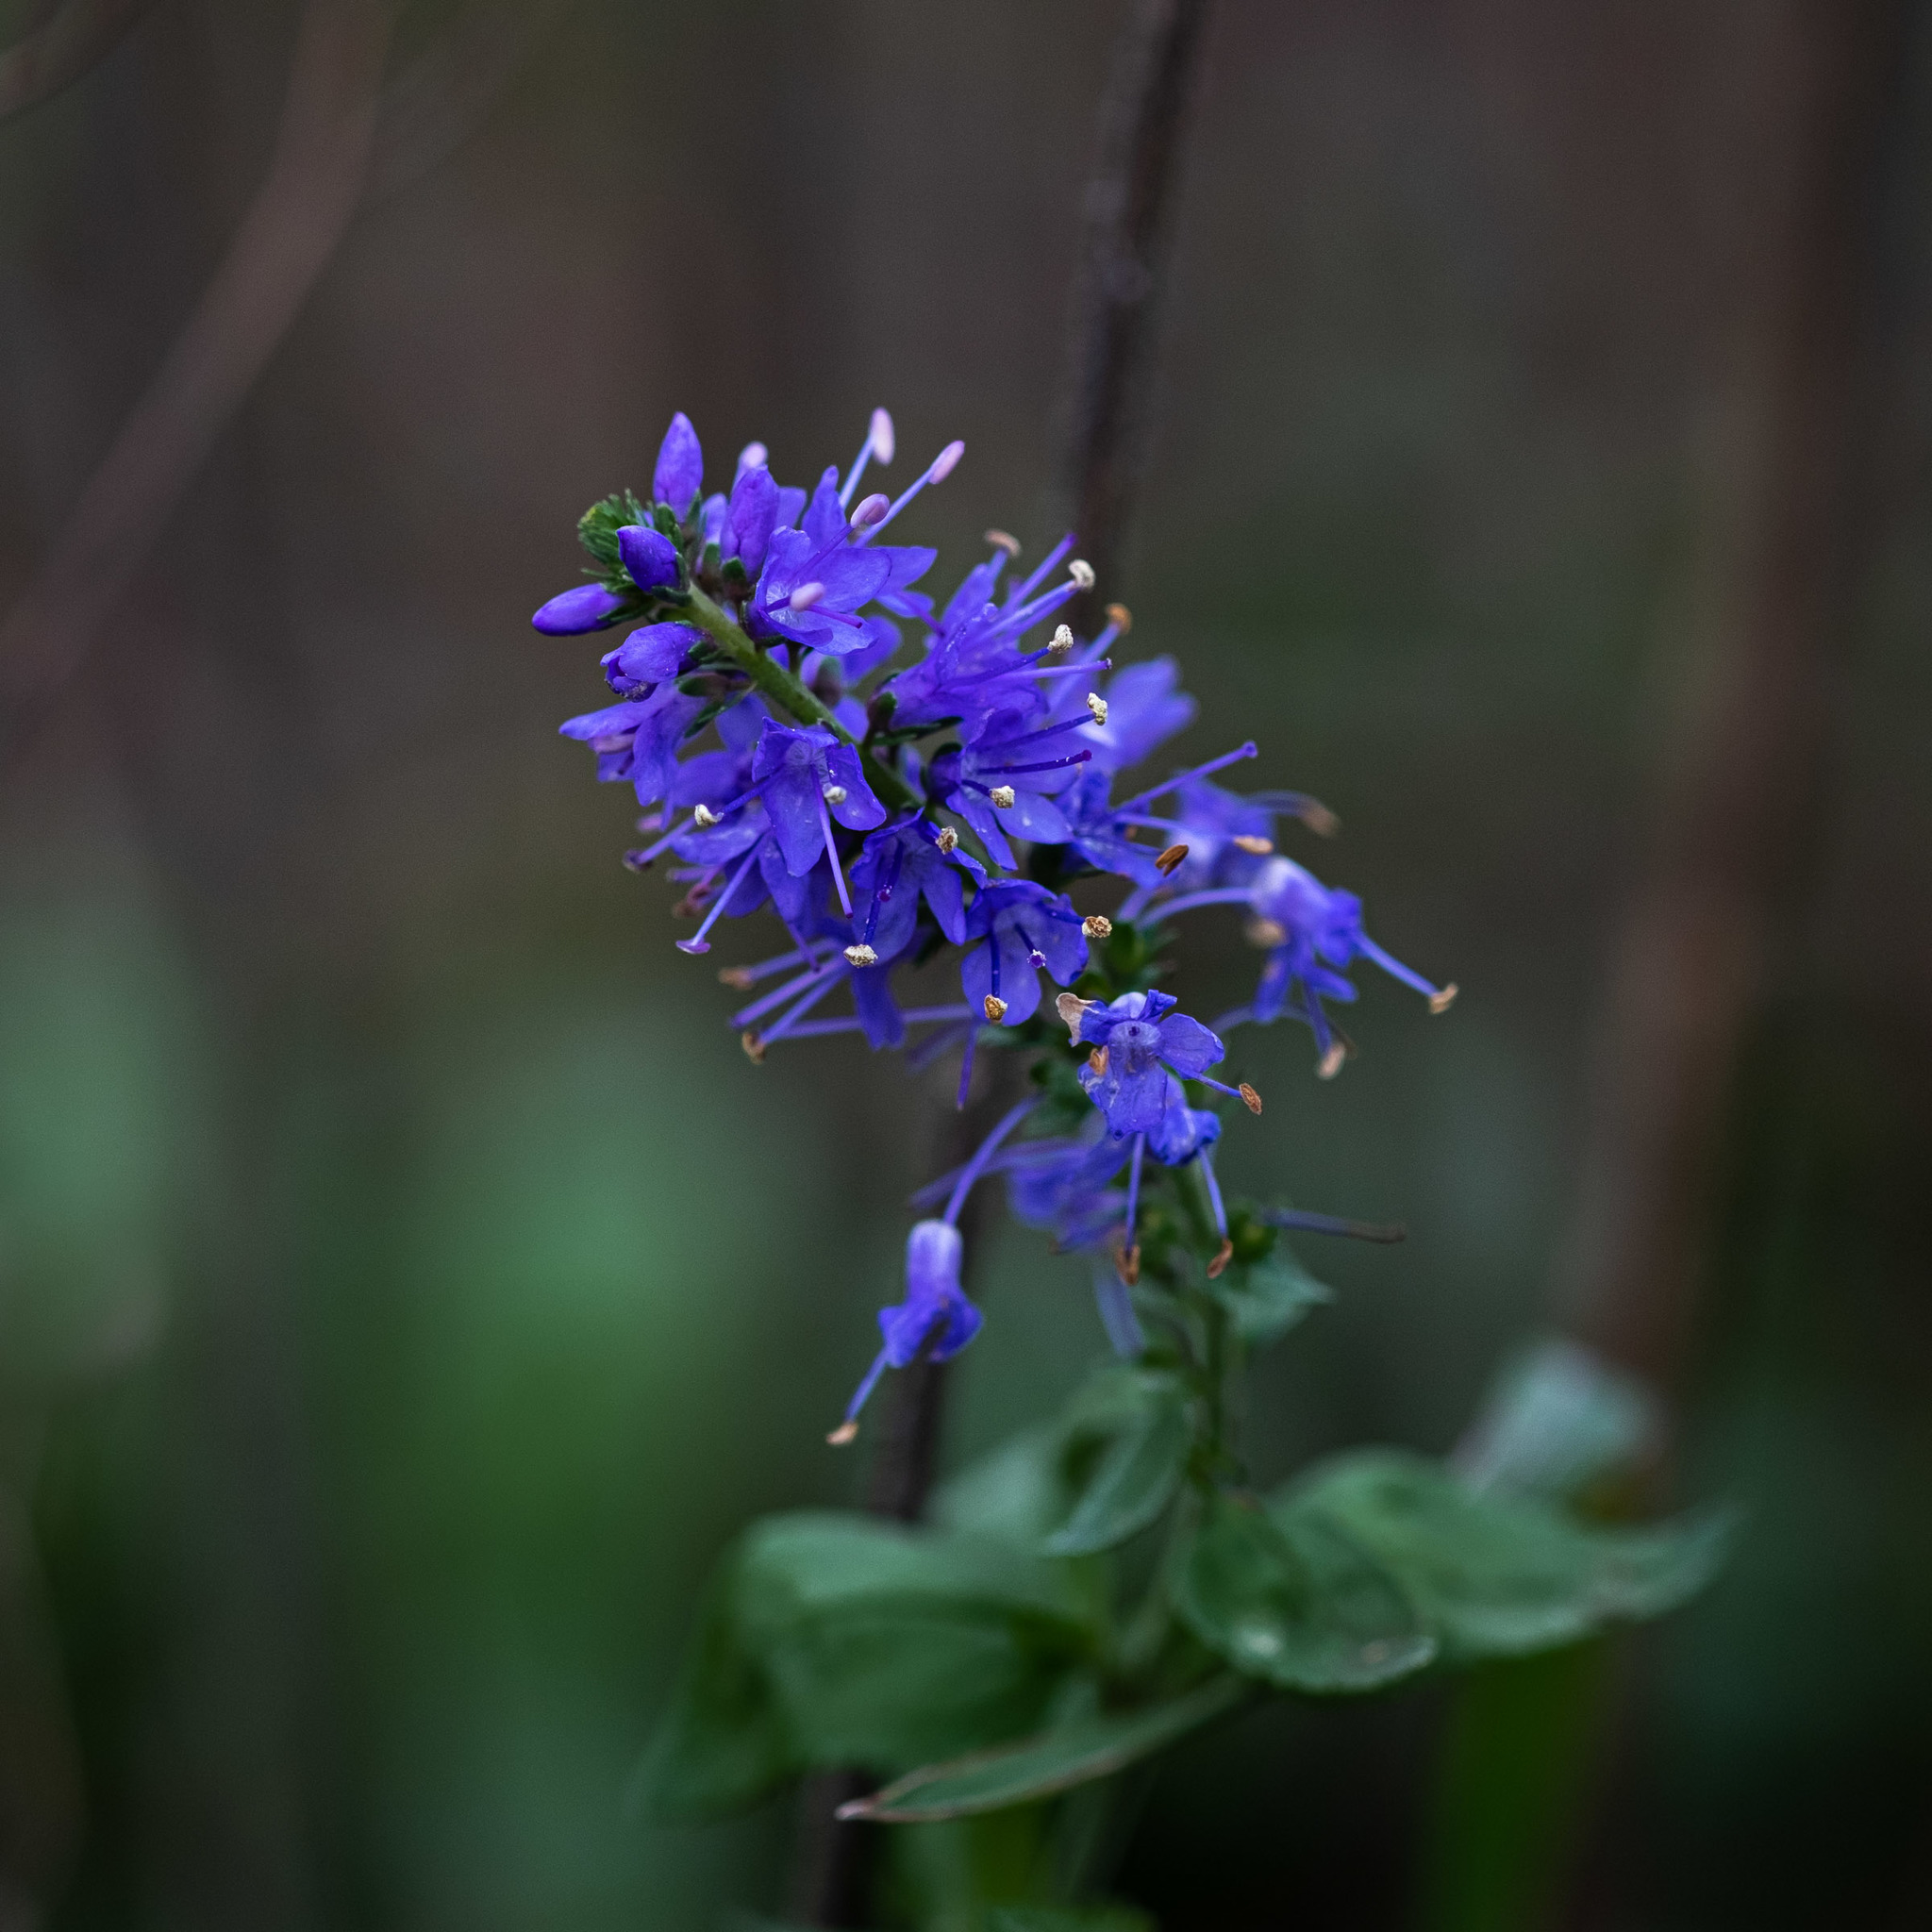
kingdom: Plantae
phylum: Tracheophyta
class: Magnoliopsida
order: Lamiales
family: Plantaginaceae
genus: Veronica
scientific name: Veronica teucrium
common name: Large speedwell
